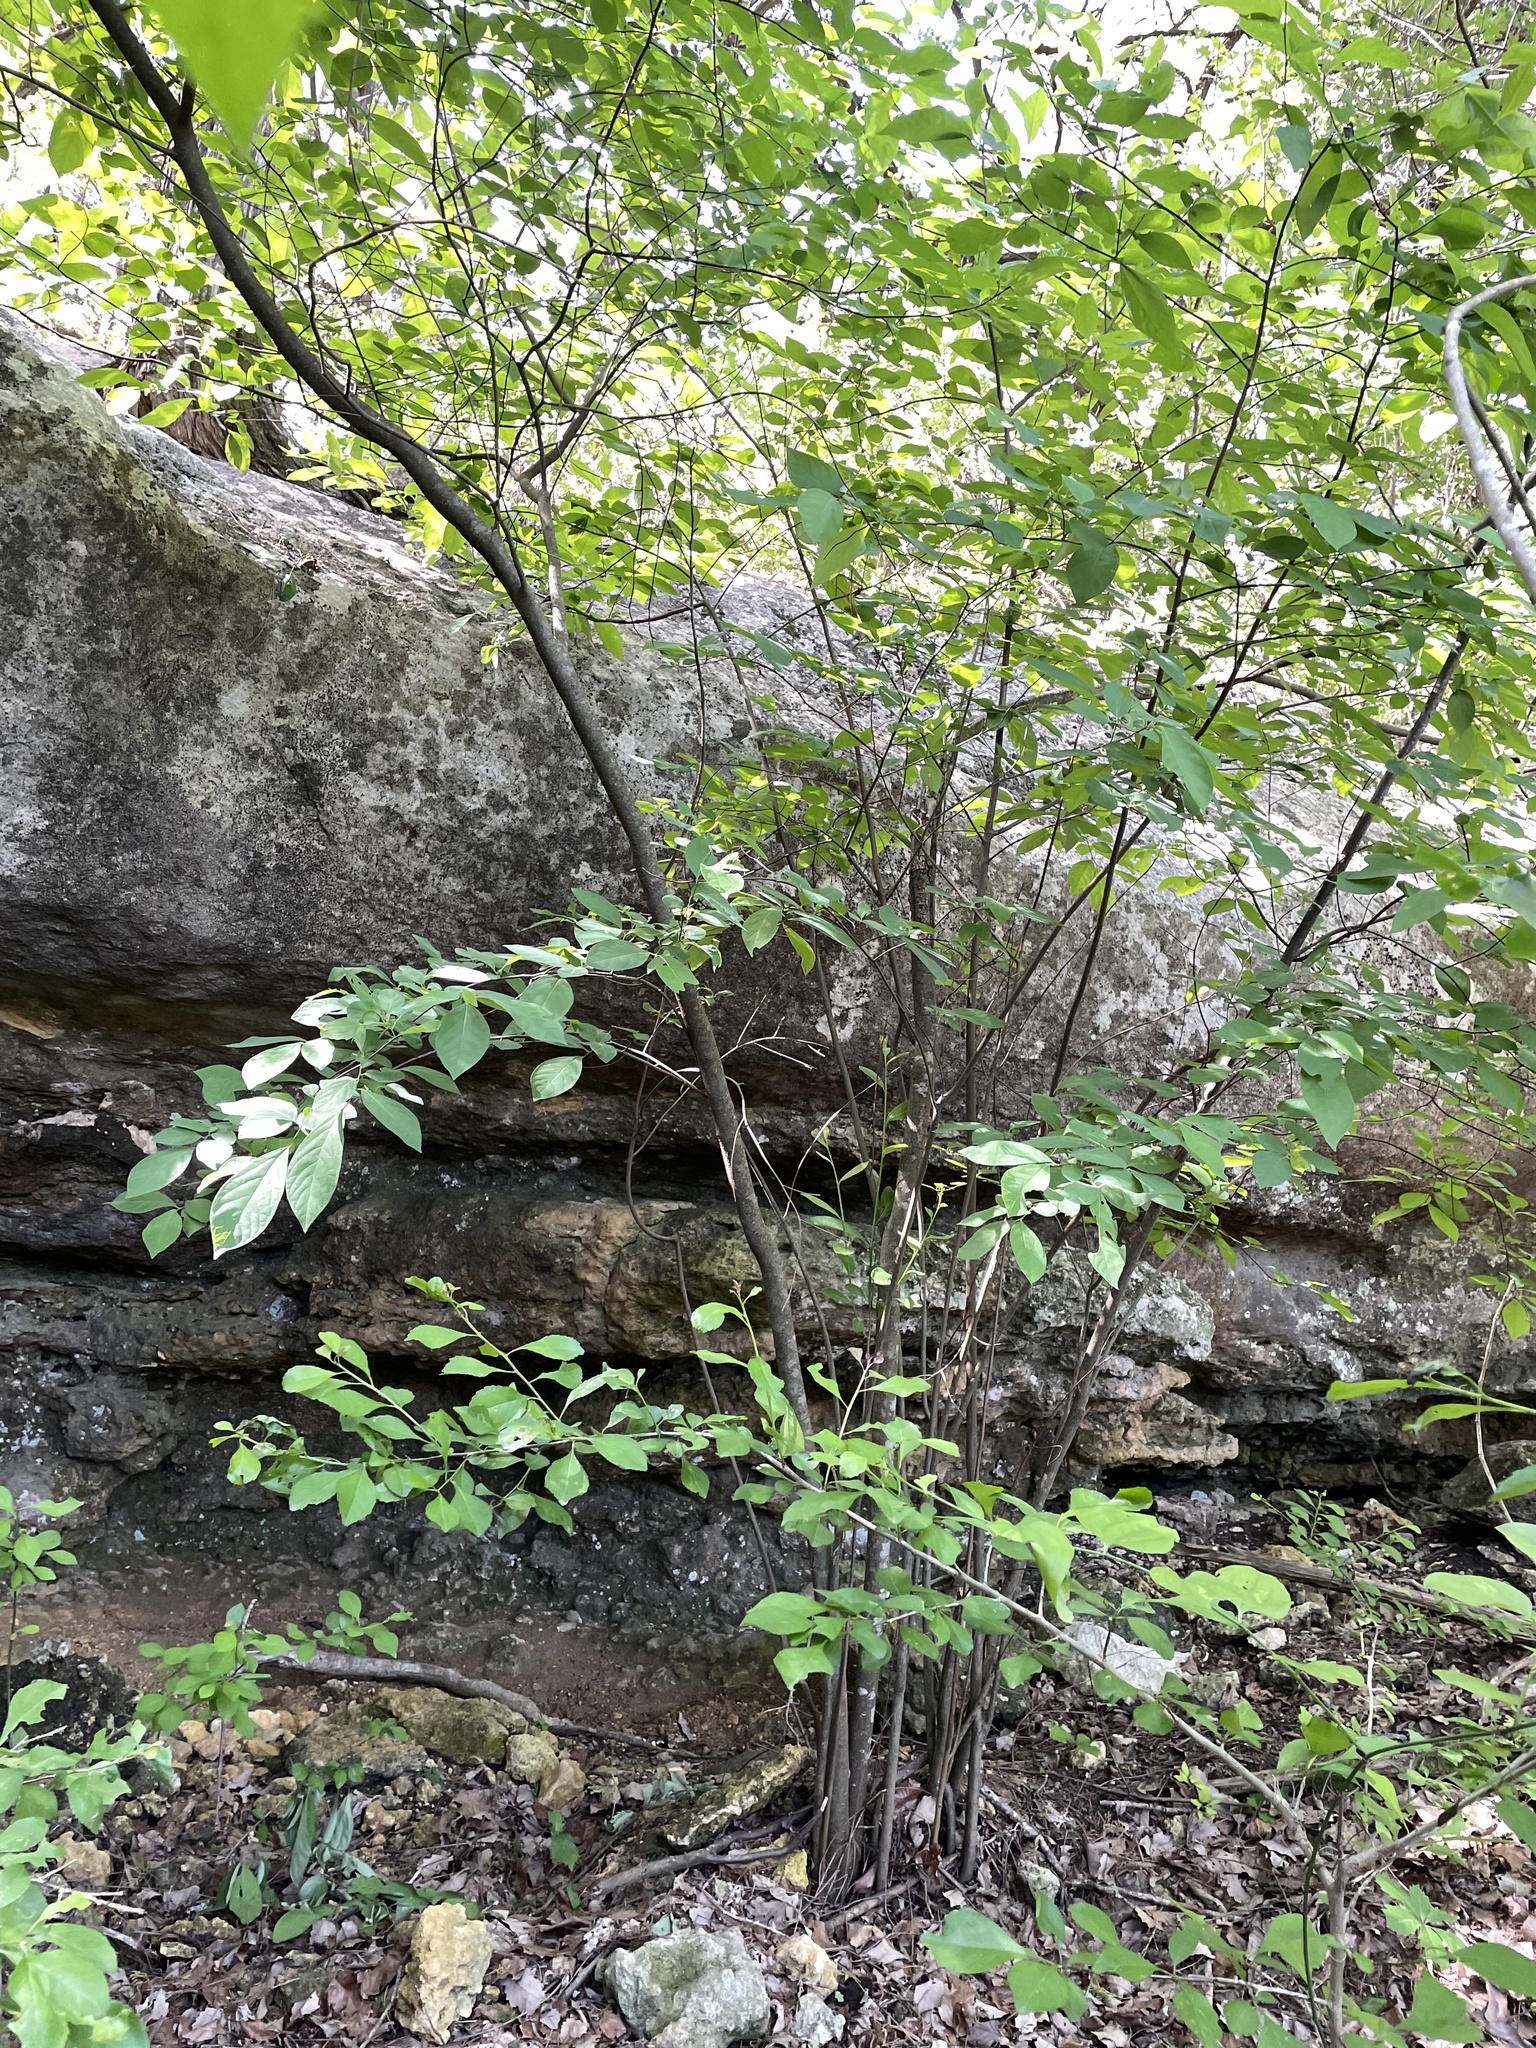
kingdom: Plantae
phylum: Tracheophyta
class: Magnoliopsida
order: Laurales
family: Lauraceae
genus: Lindera
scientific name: Lindera benzoin
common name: Spicebush
